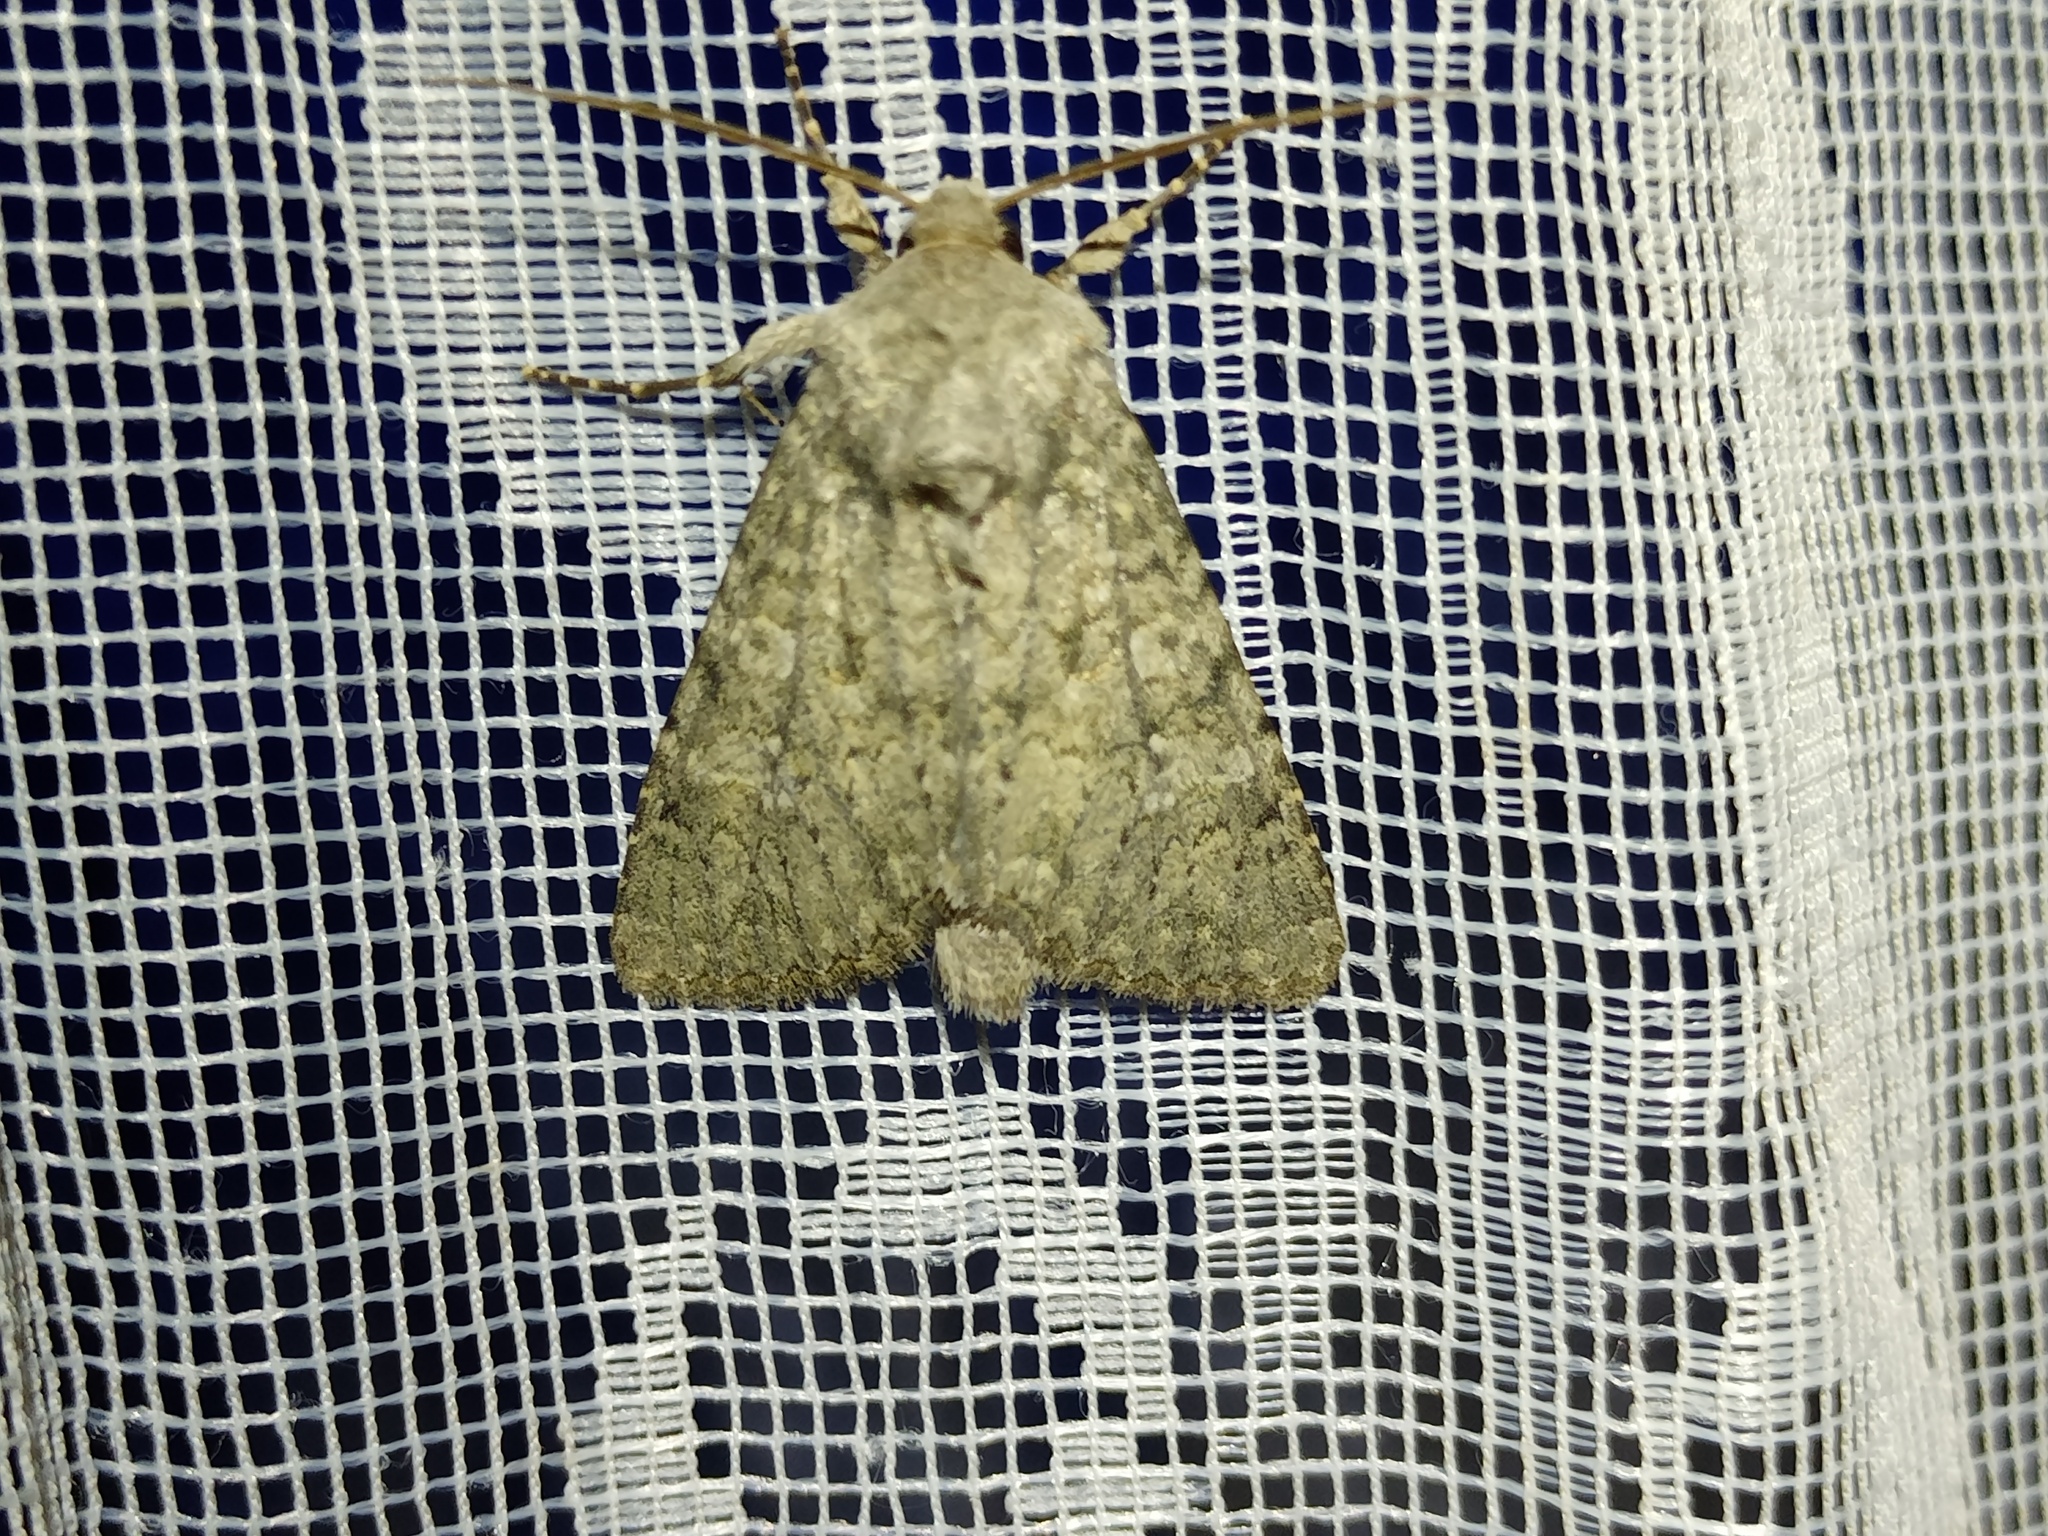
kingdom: Animalia
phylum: Arthropoda
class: Insecta
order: Lepidoptera
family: Noctuidae
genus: Polia
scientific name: Polia serratilinea
